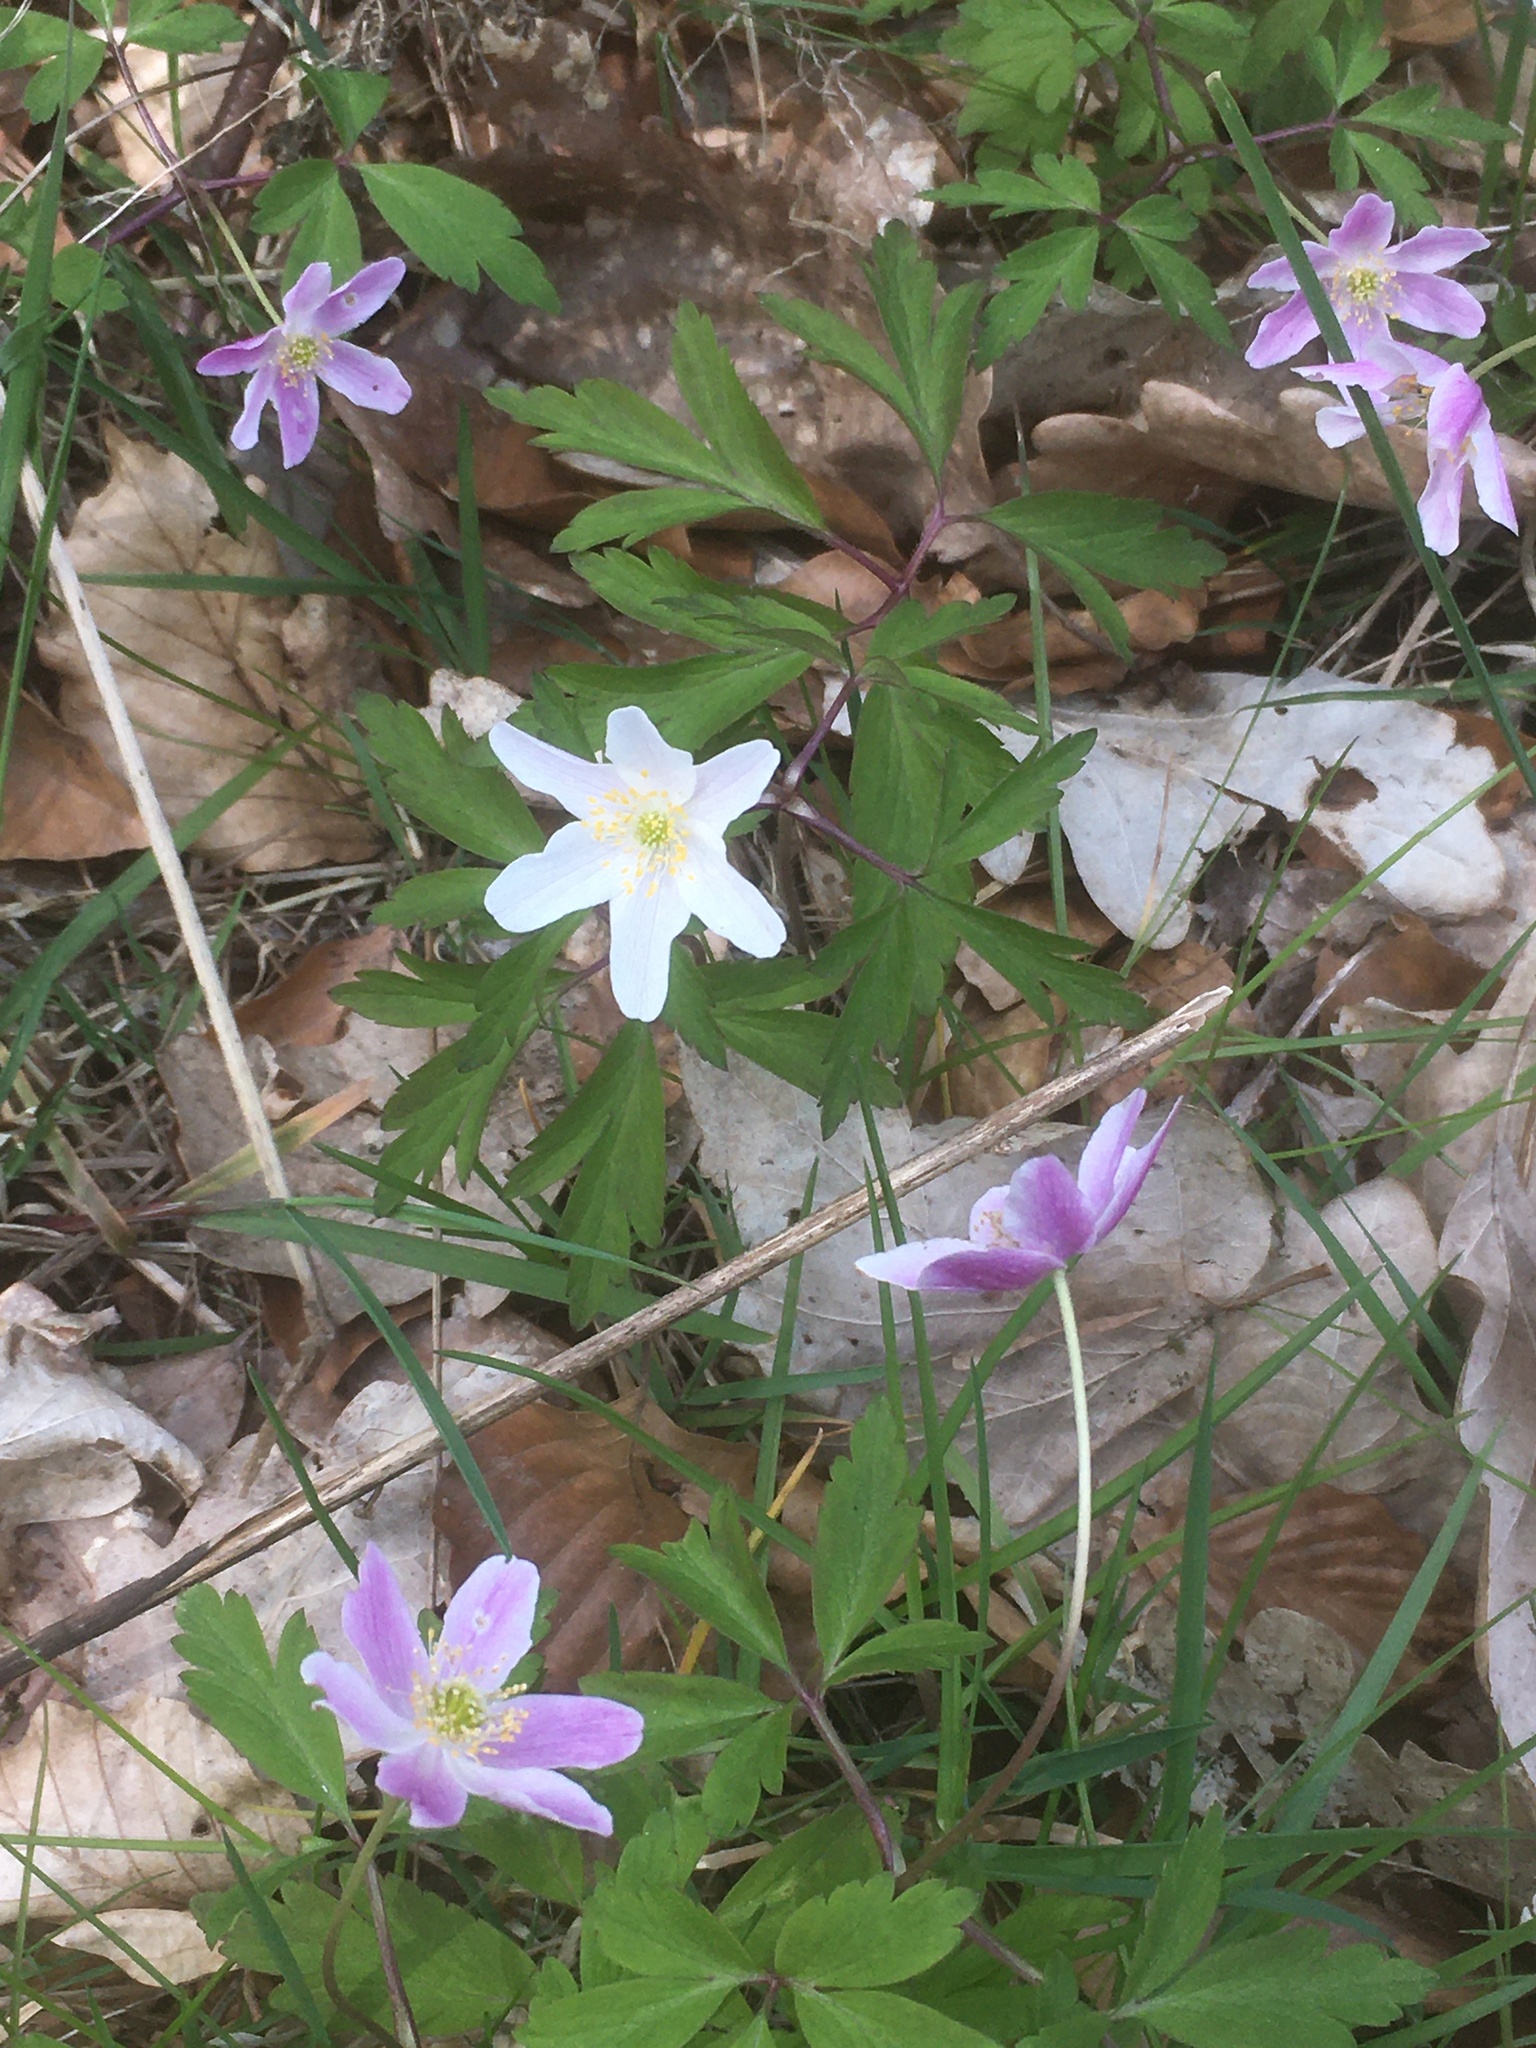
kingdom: Plantae
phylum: Tracheophyta
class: Magnoliopsida
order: Ranunculales
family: Ranunculaceae
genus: Anemone
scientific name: Anemone nemorosa
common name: Wood anemone
